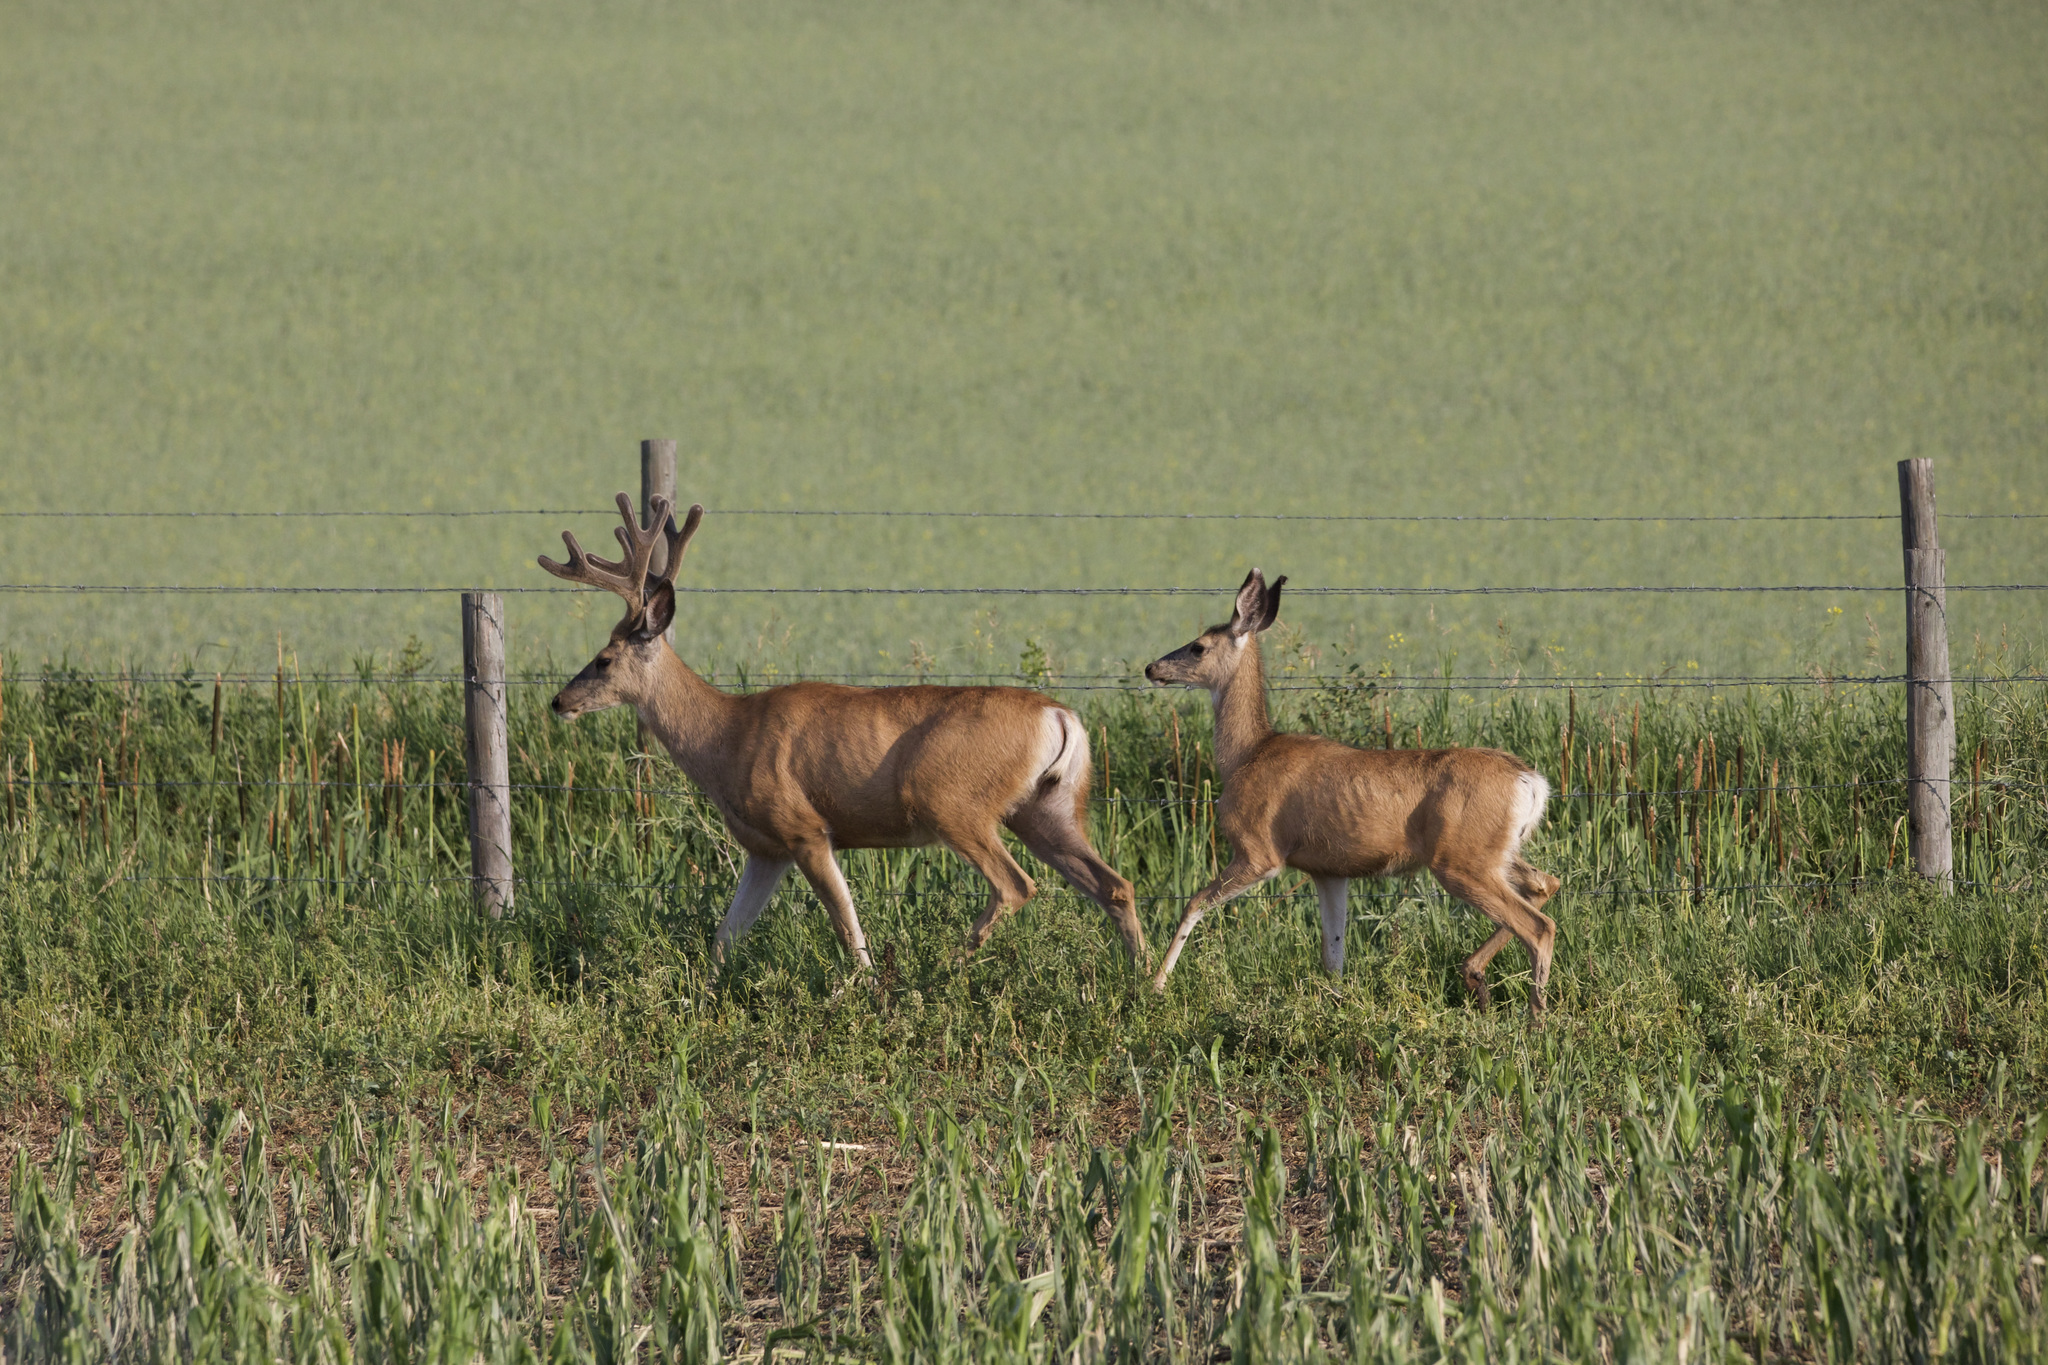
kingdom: Animalia
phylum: Chordata
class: Mammalia
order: Artiodactyla
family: Cervidae
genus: Odocoileus
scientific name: Odocoileus hemionus
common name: Mule deer
